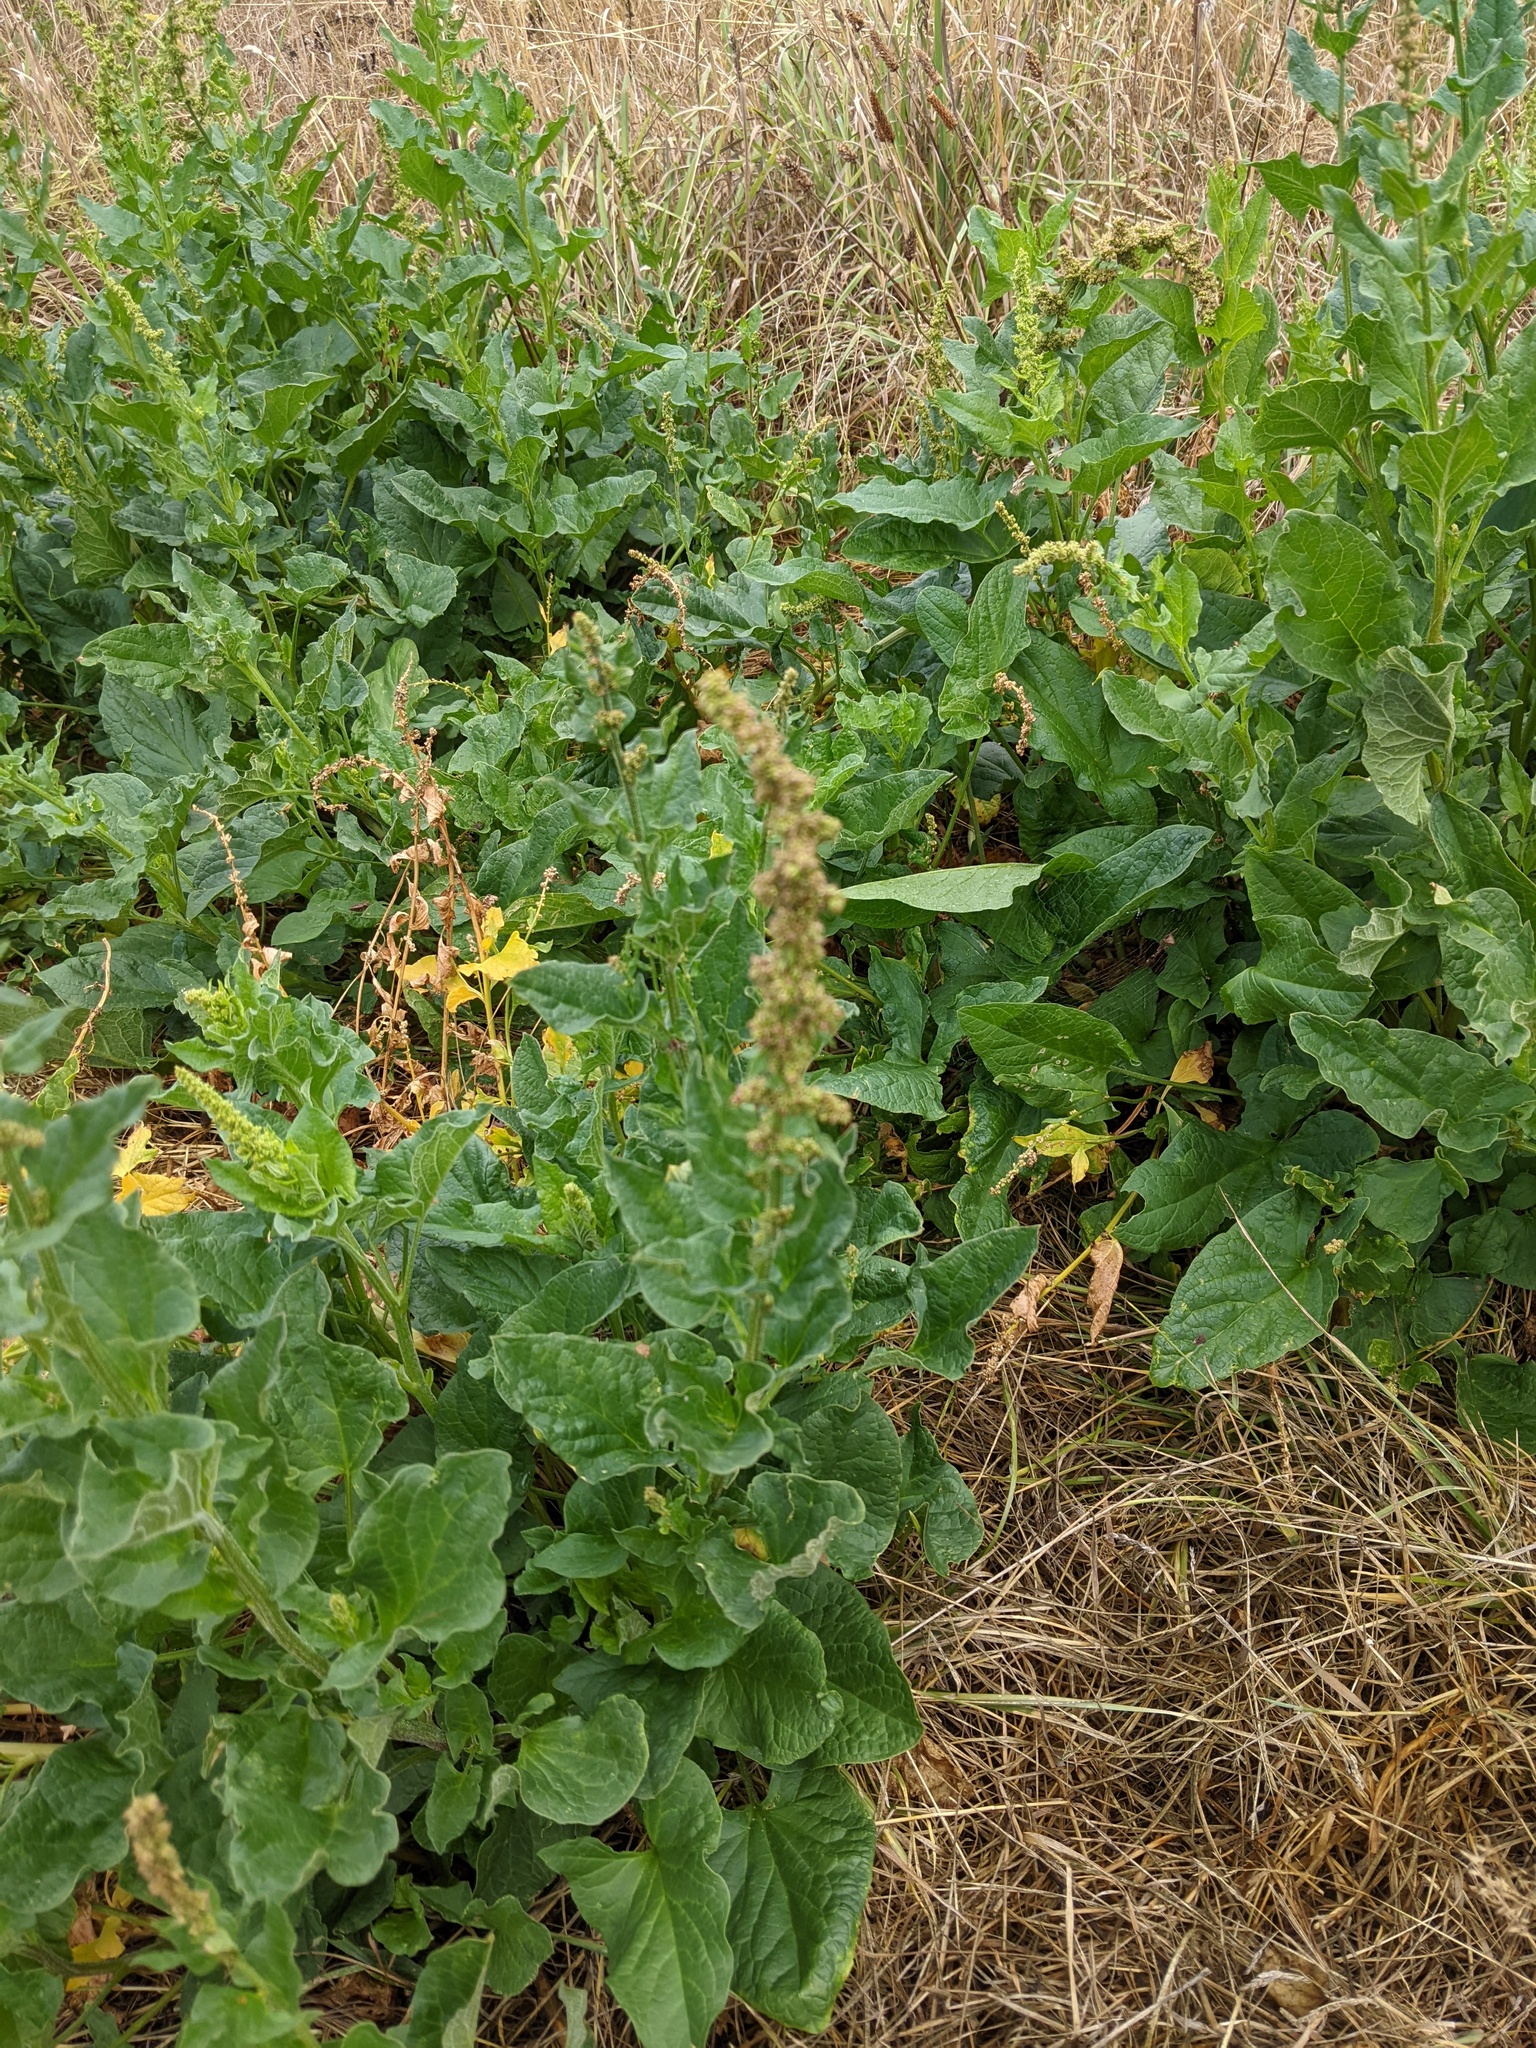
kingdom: Plantae
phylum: Tracheophyta
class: Magnoliopsida
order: Caryophyllales
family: Amaranthaceae
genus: Blitum
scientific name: Blitum bonus-henricus
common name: Good king henry
